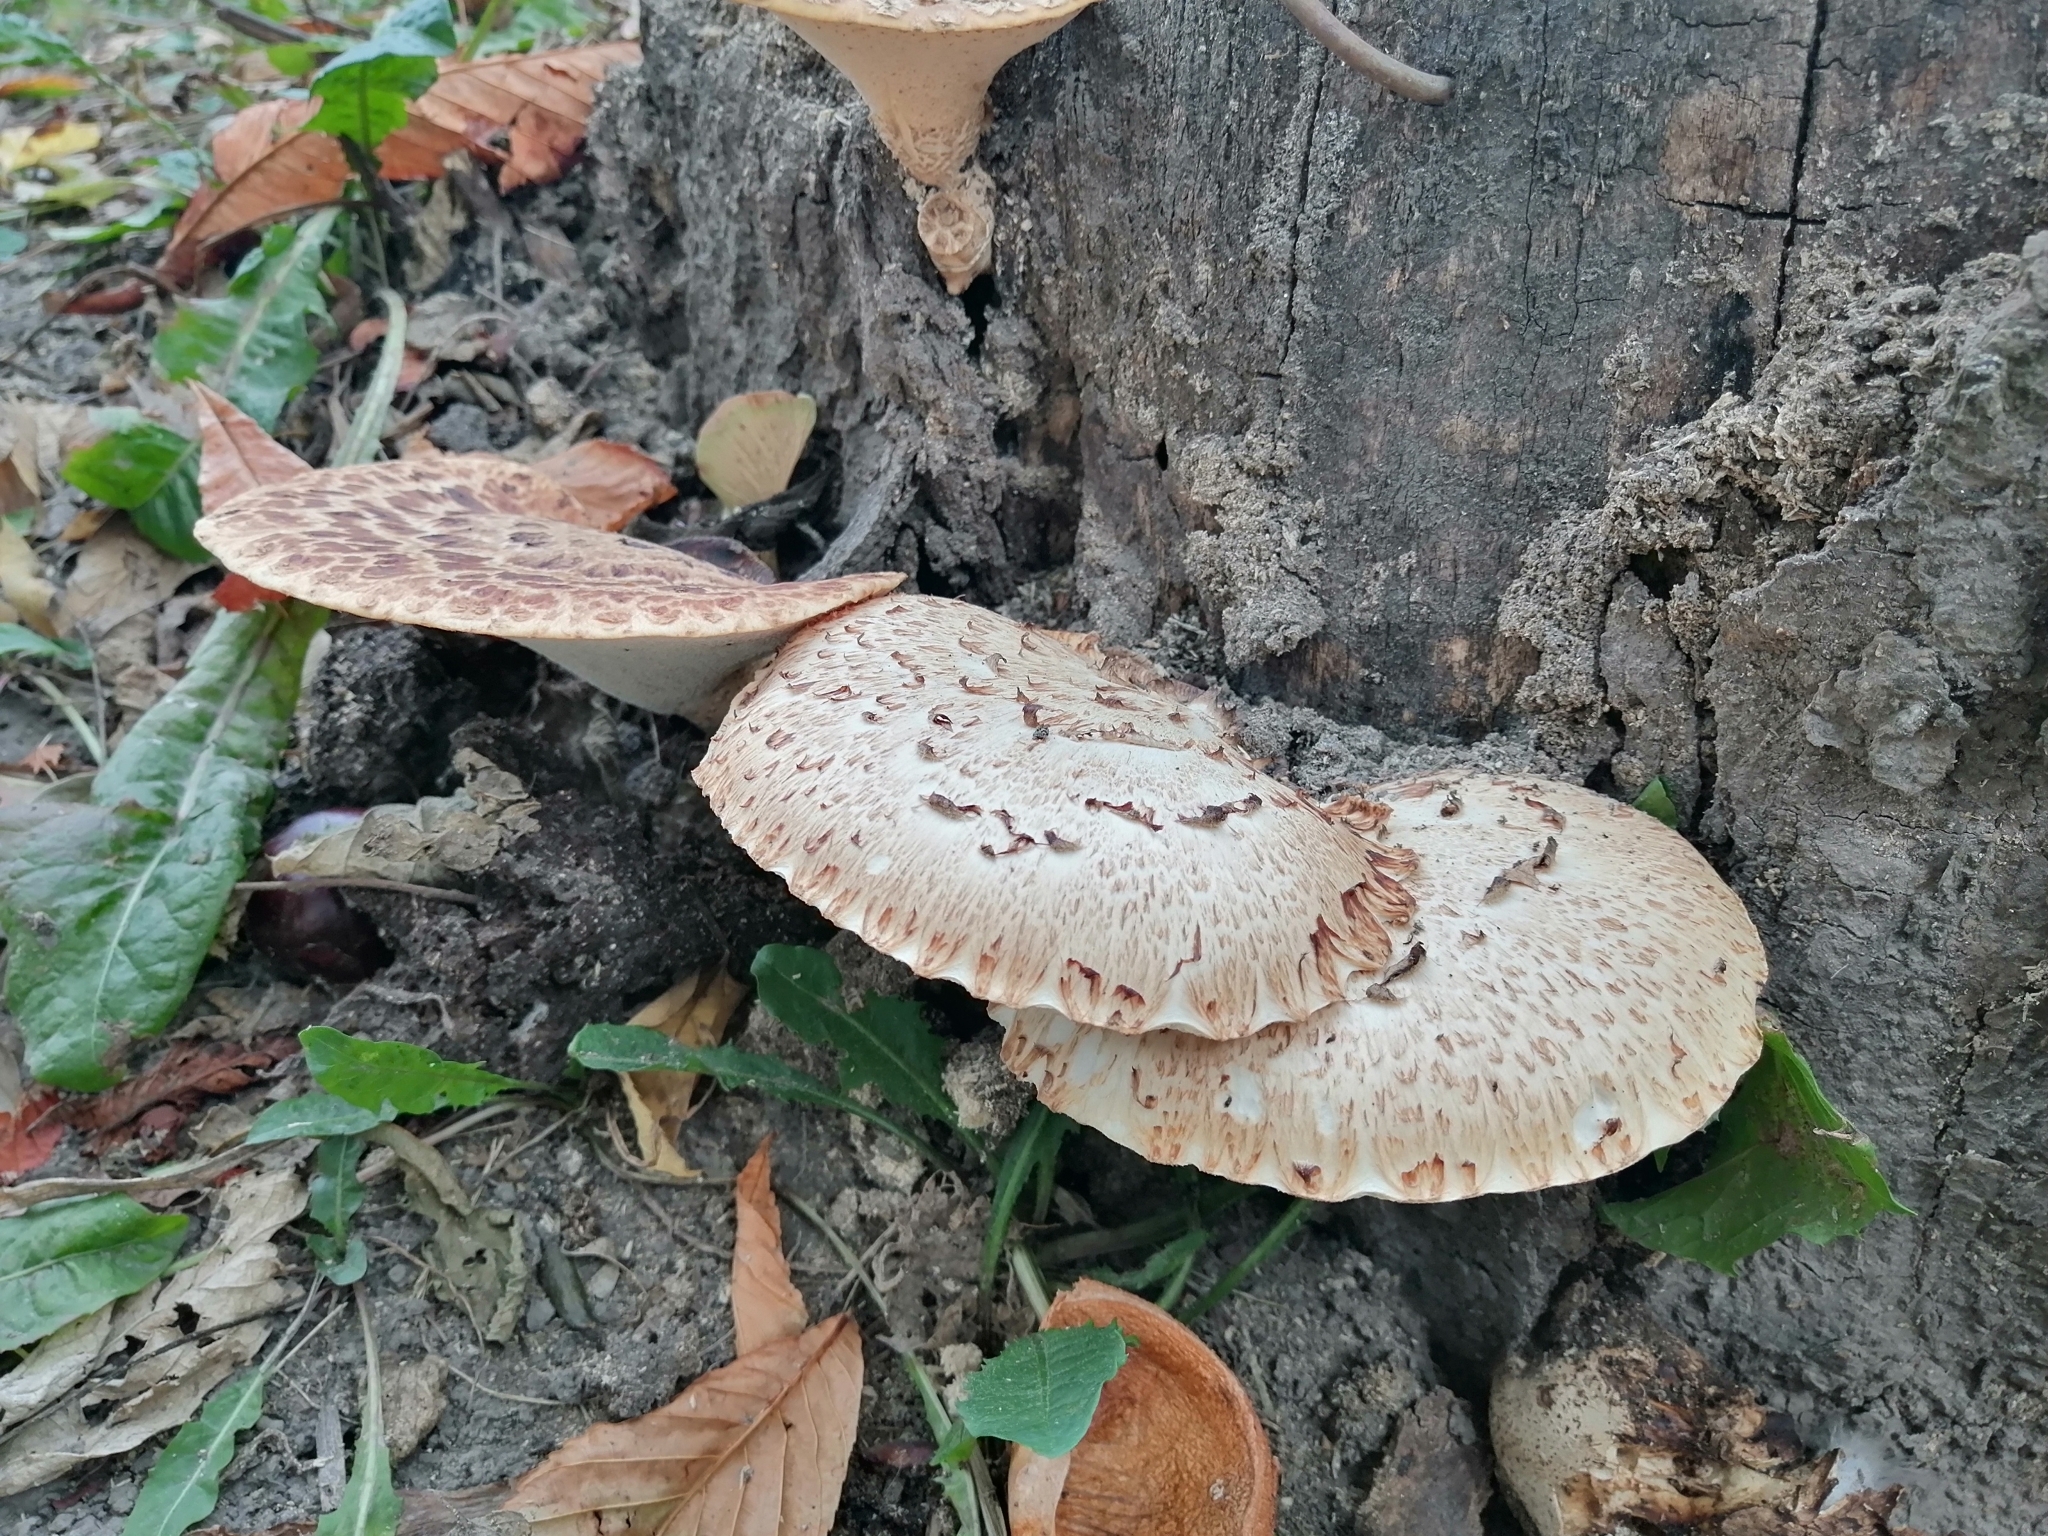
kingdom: Fungi
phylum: Basidiomycota
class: Agaricomycetes
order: Polyporales
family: Polyporaceae
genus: Cerioporus
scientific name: Cerioporus squamosus
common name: Dryad's saddle
